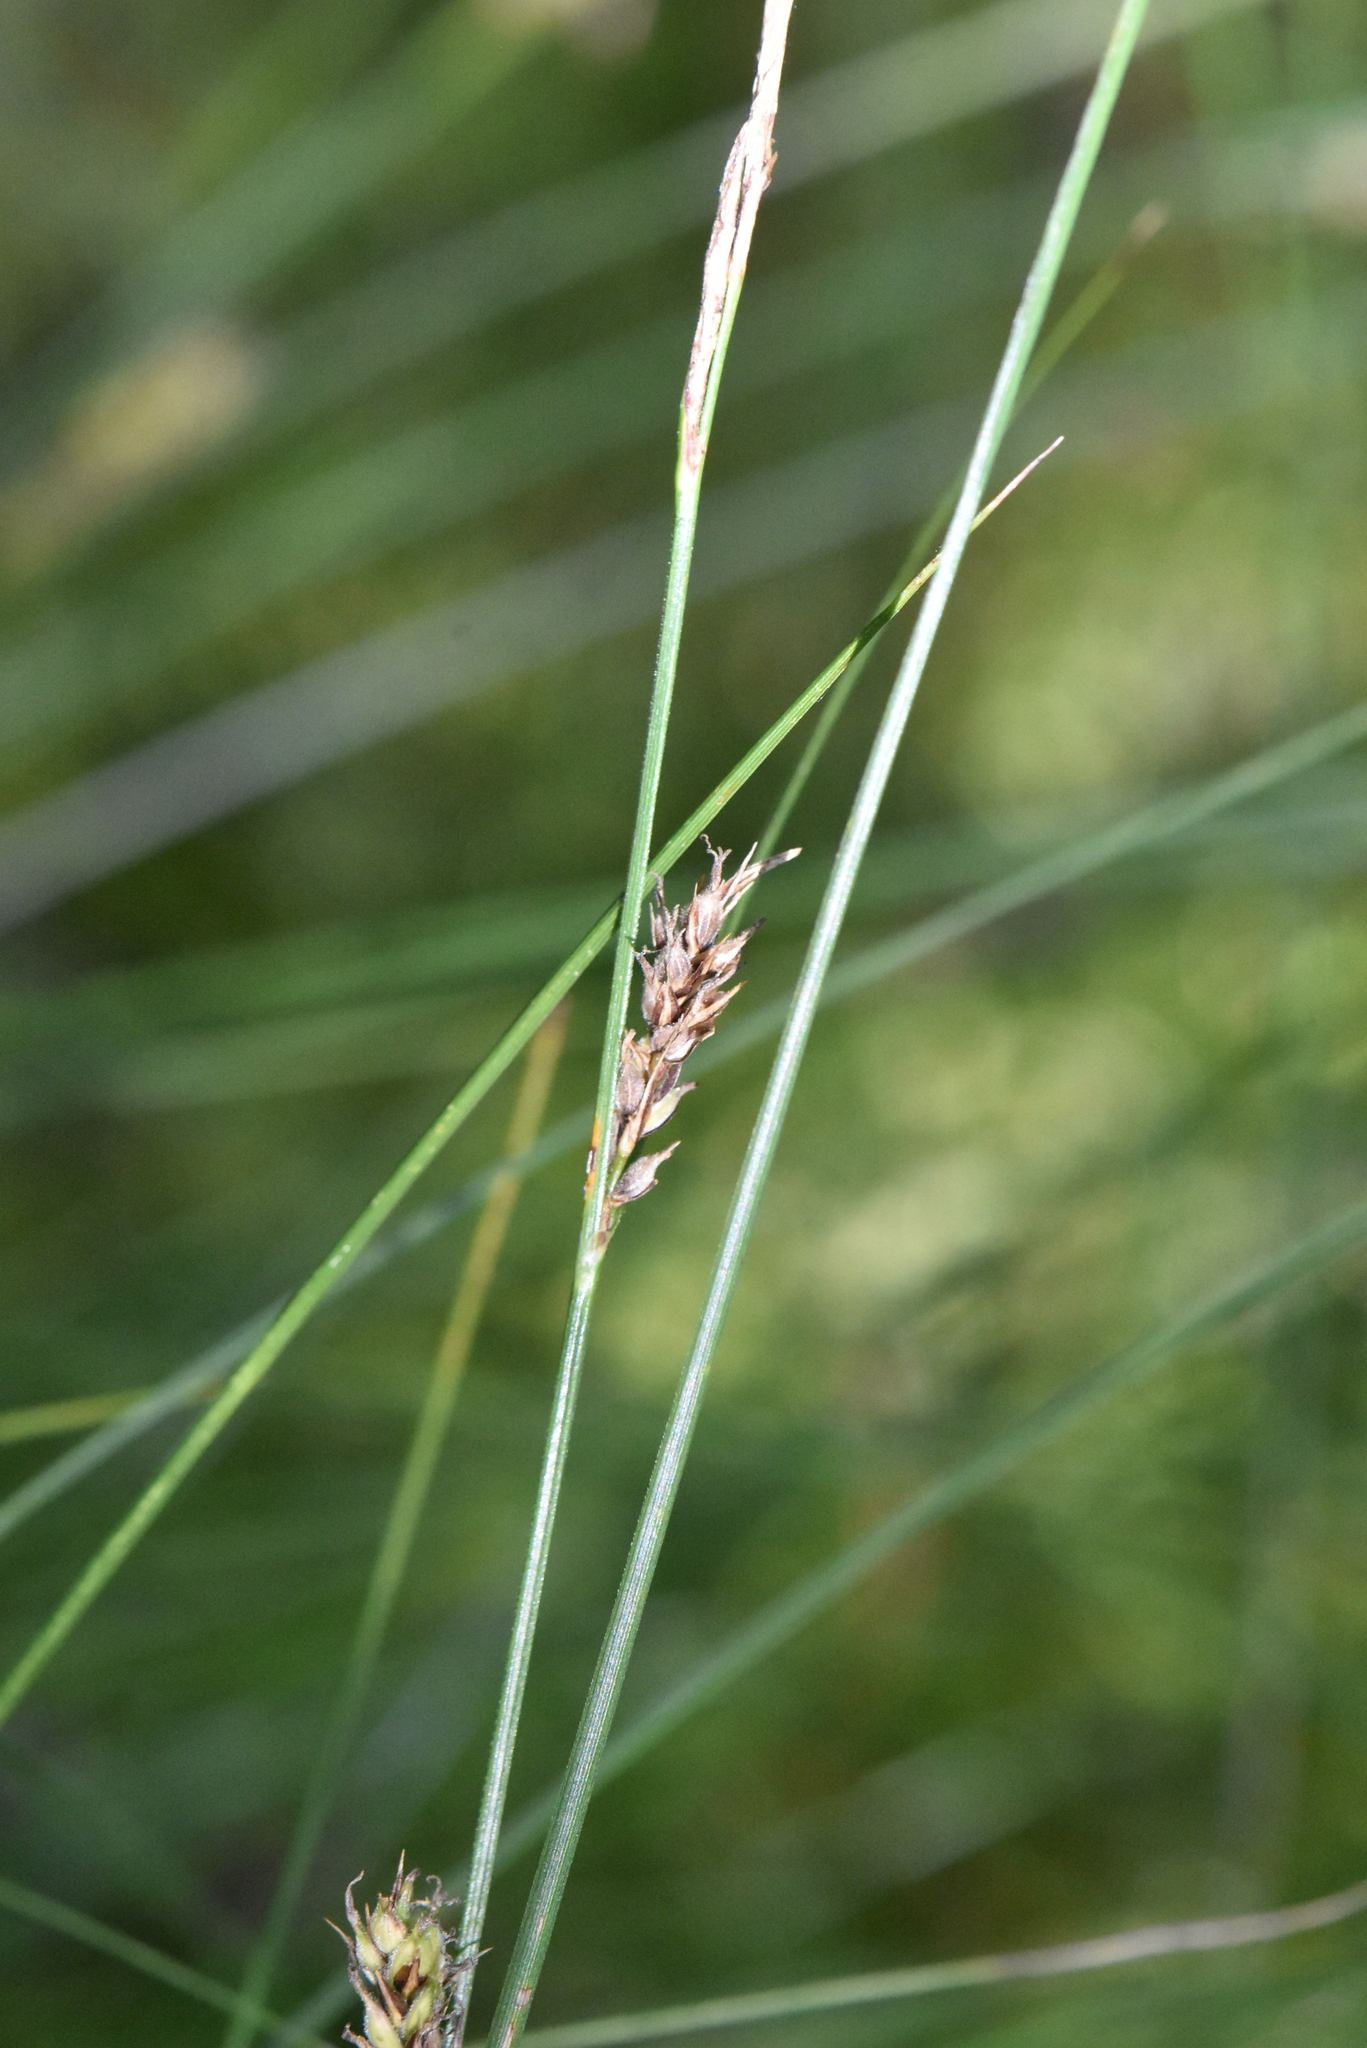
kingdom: Plantae
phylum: Tracheophyta
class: Liliopsida
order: Poales
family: Cyperaceae
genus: Carex
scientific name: Carex lasiocarpa
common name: Slender sedge
